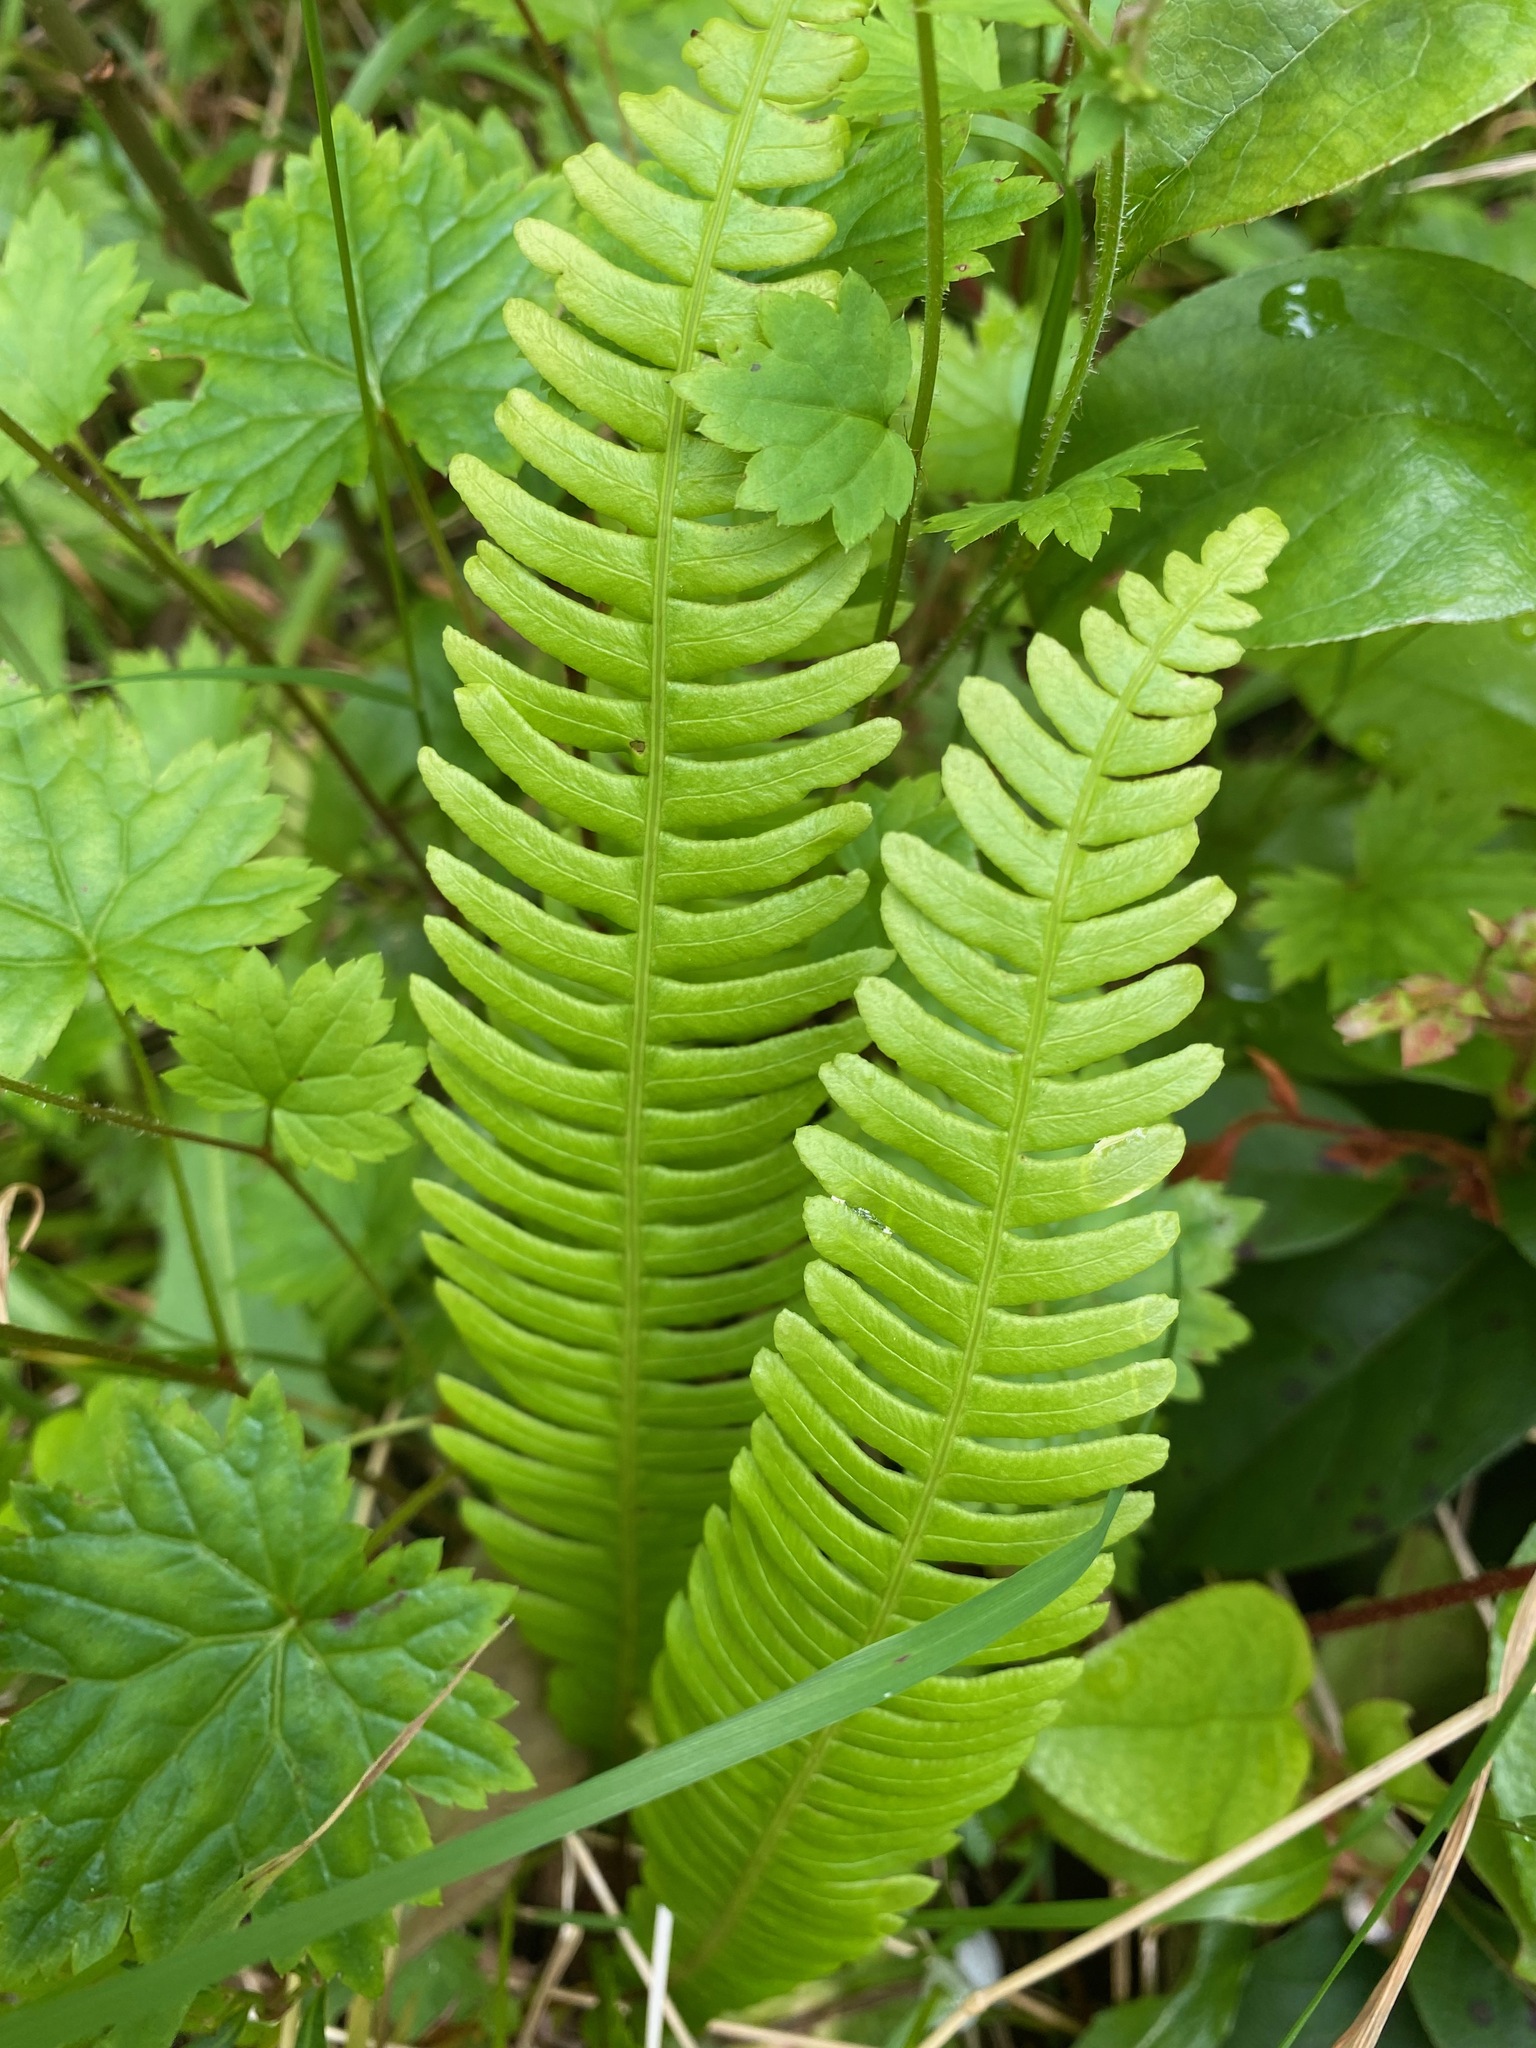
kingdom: Plantae
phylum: Tracheophyta
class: Polypodiopsida
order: Polypodiales
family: Blechnaceae
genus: Struthiopteris
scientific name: Struthiopteris spicant
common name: Deer fern
